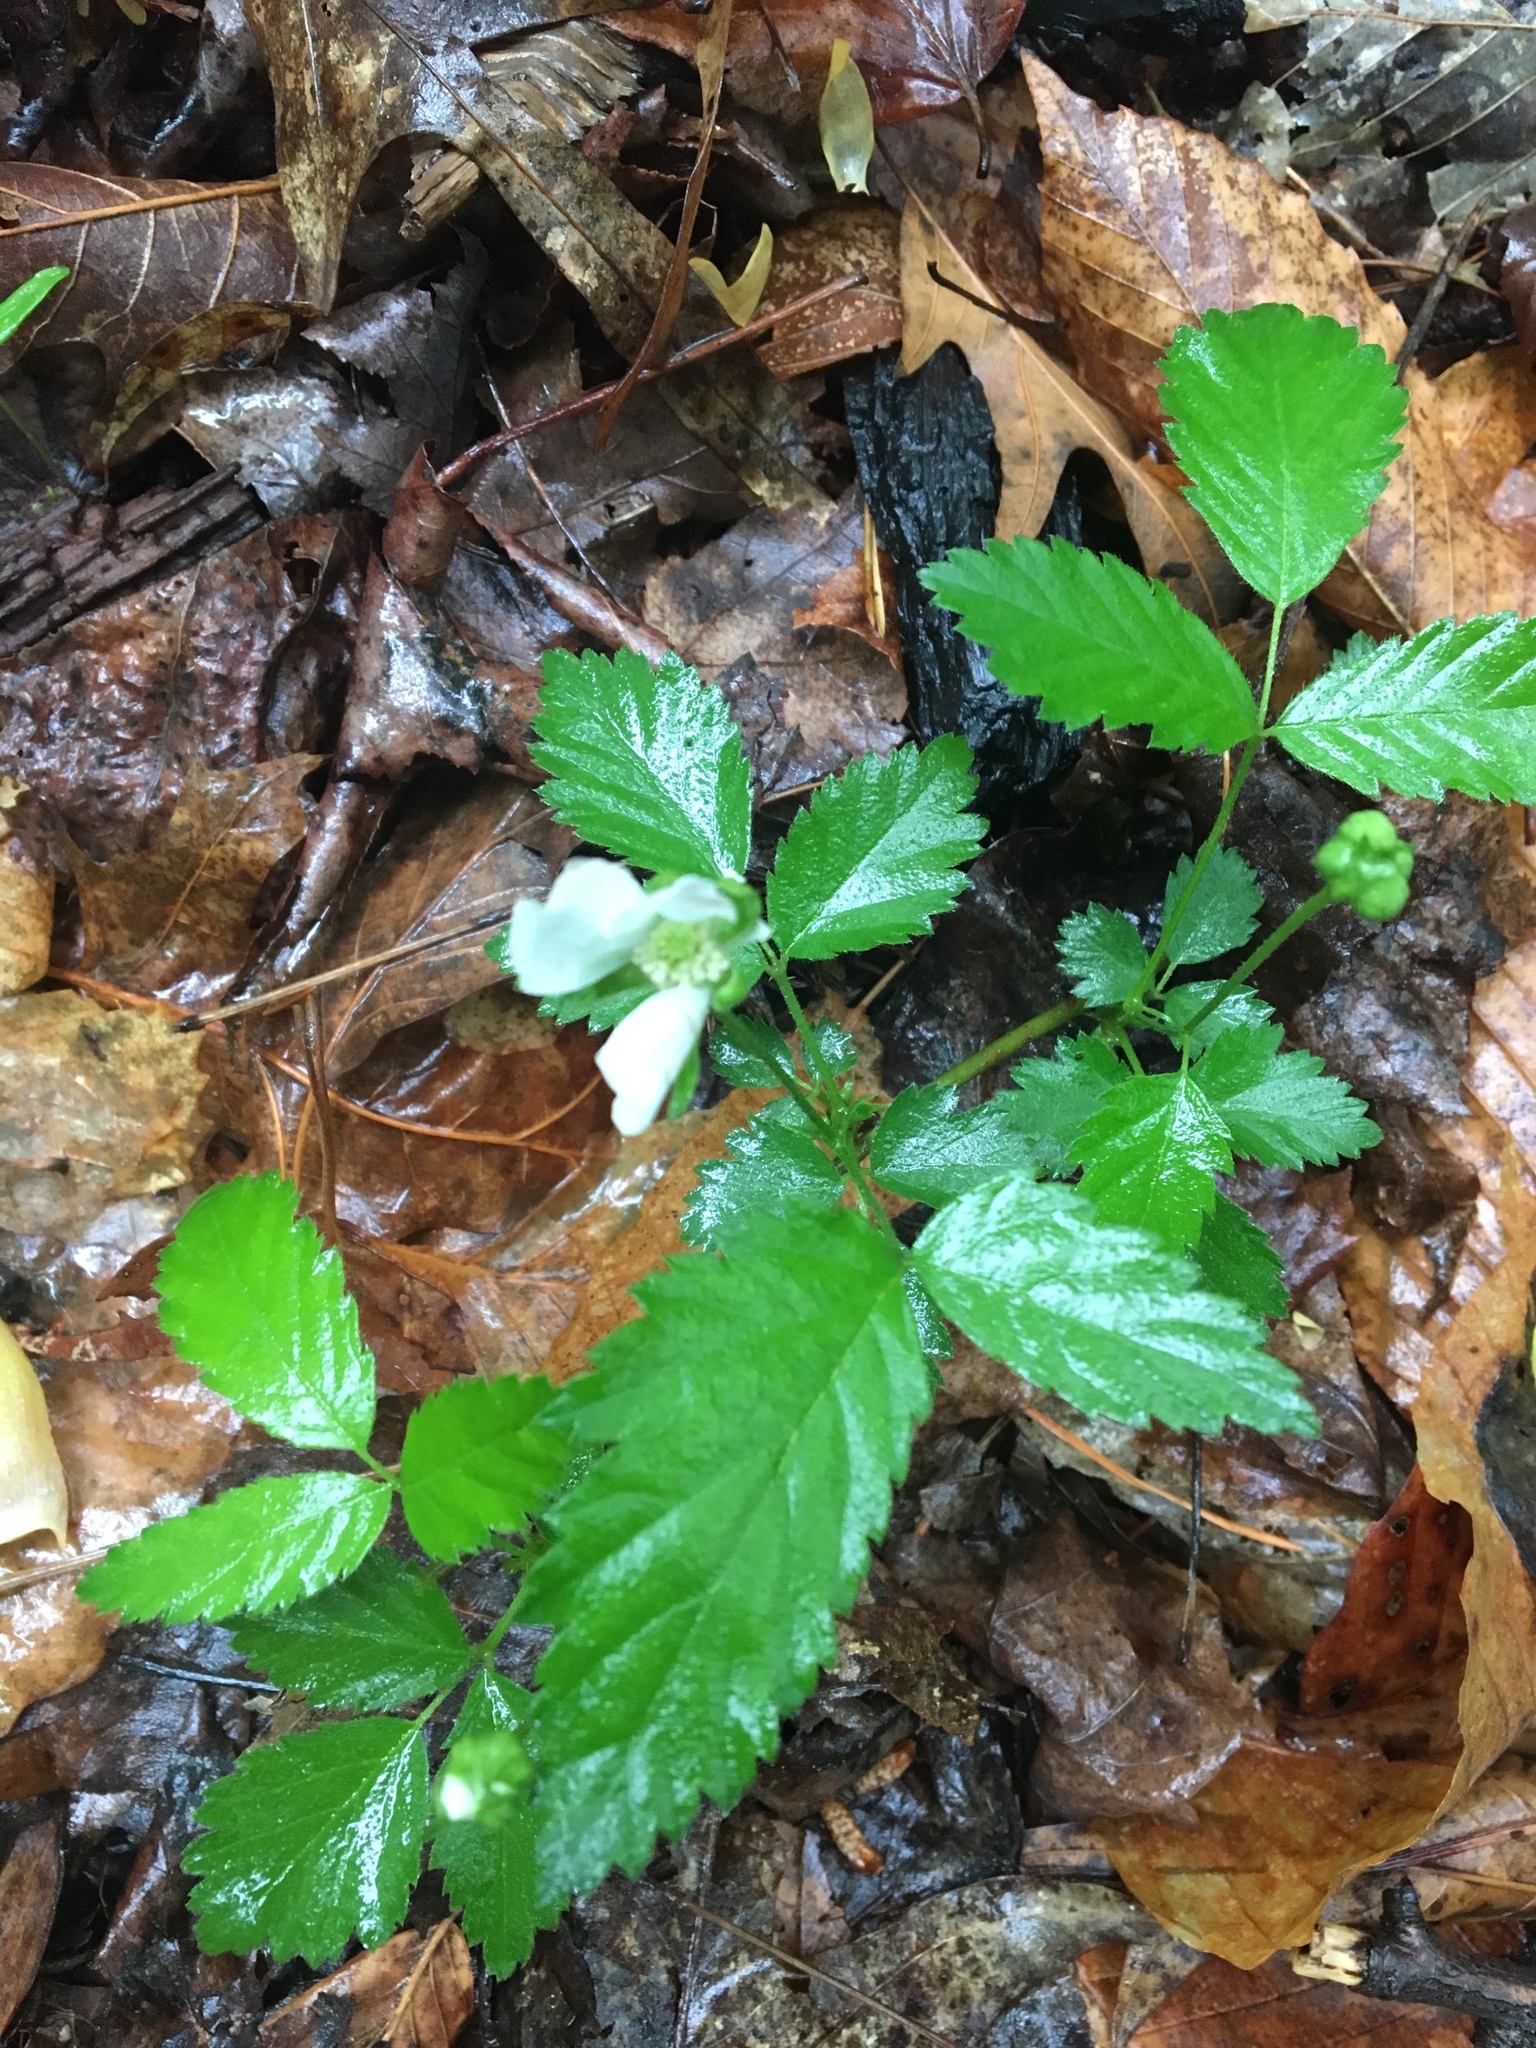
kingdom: Plantae
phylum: Tracheophyta
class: Magnoliopsida
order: Rosales
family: Rosaceae
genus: Rubus
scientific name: Rubus flagellaris
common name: American dewberry
